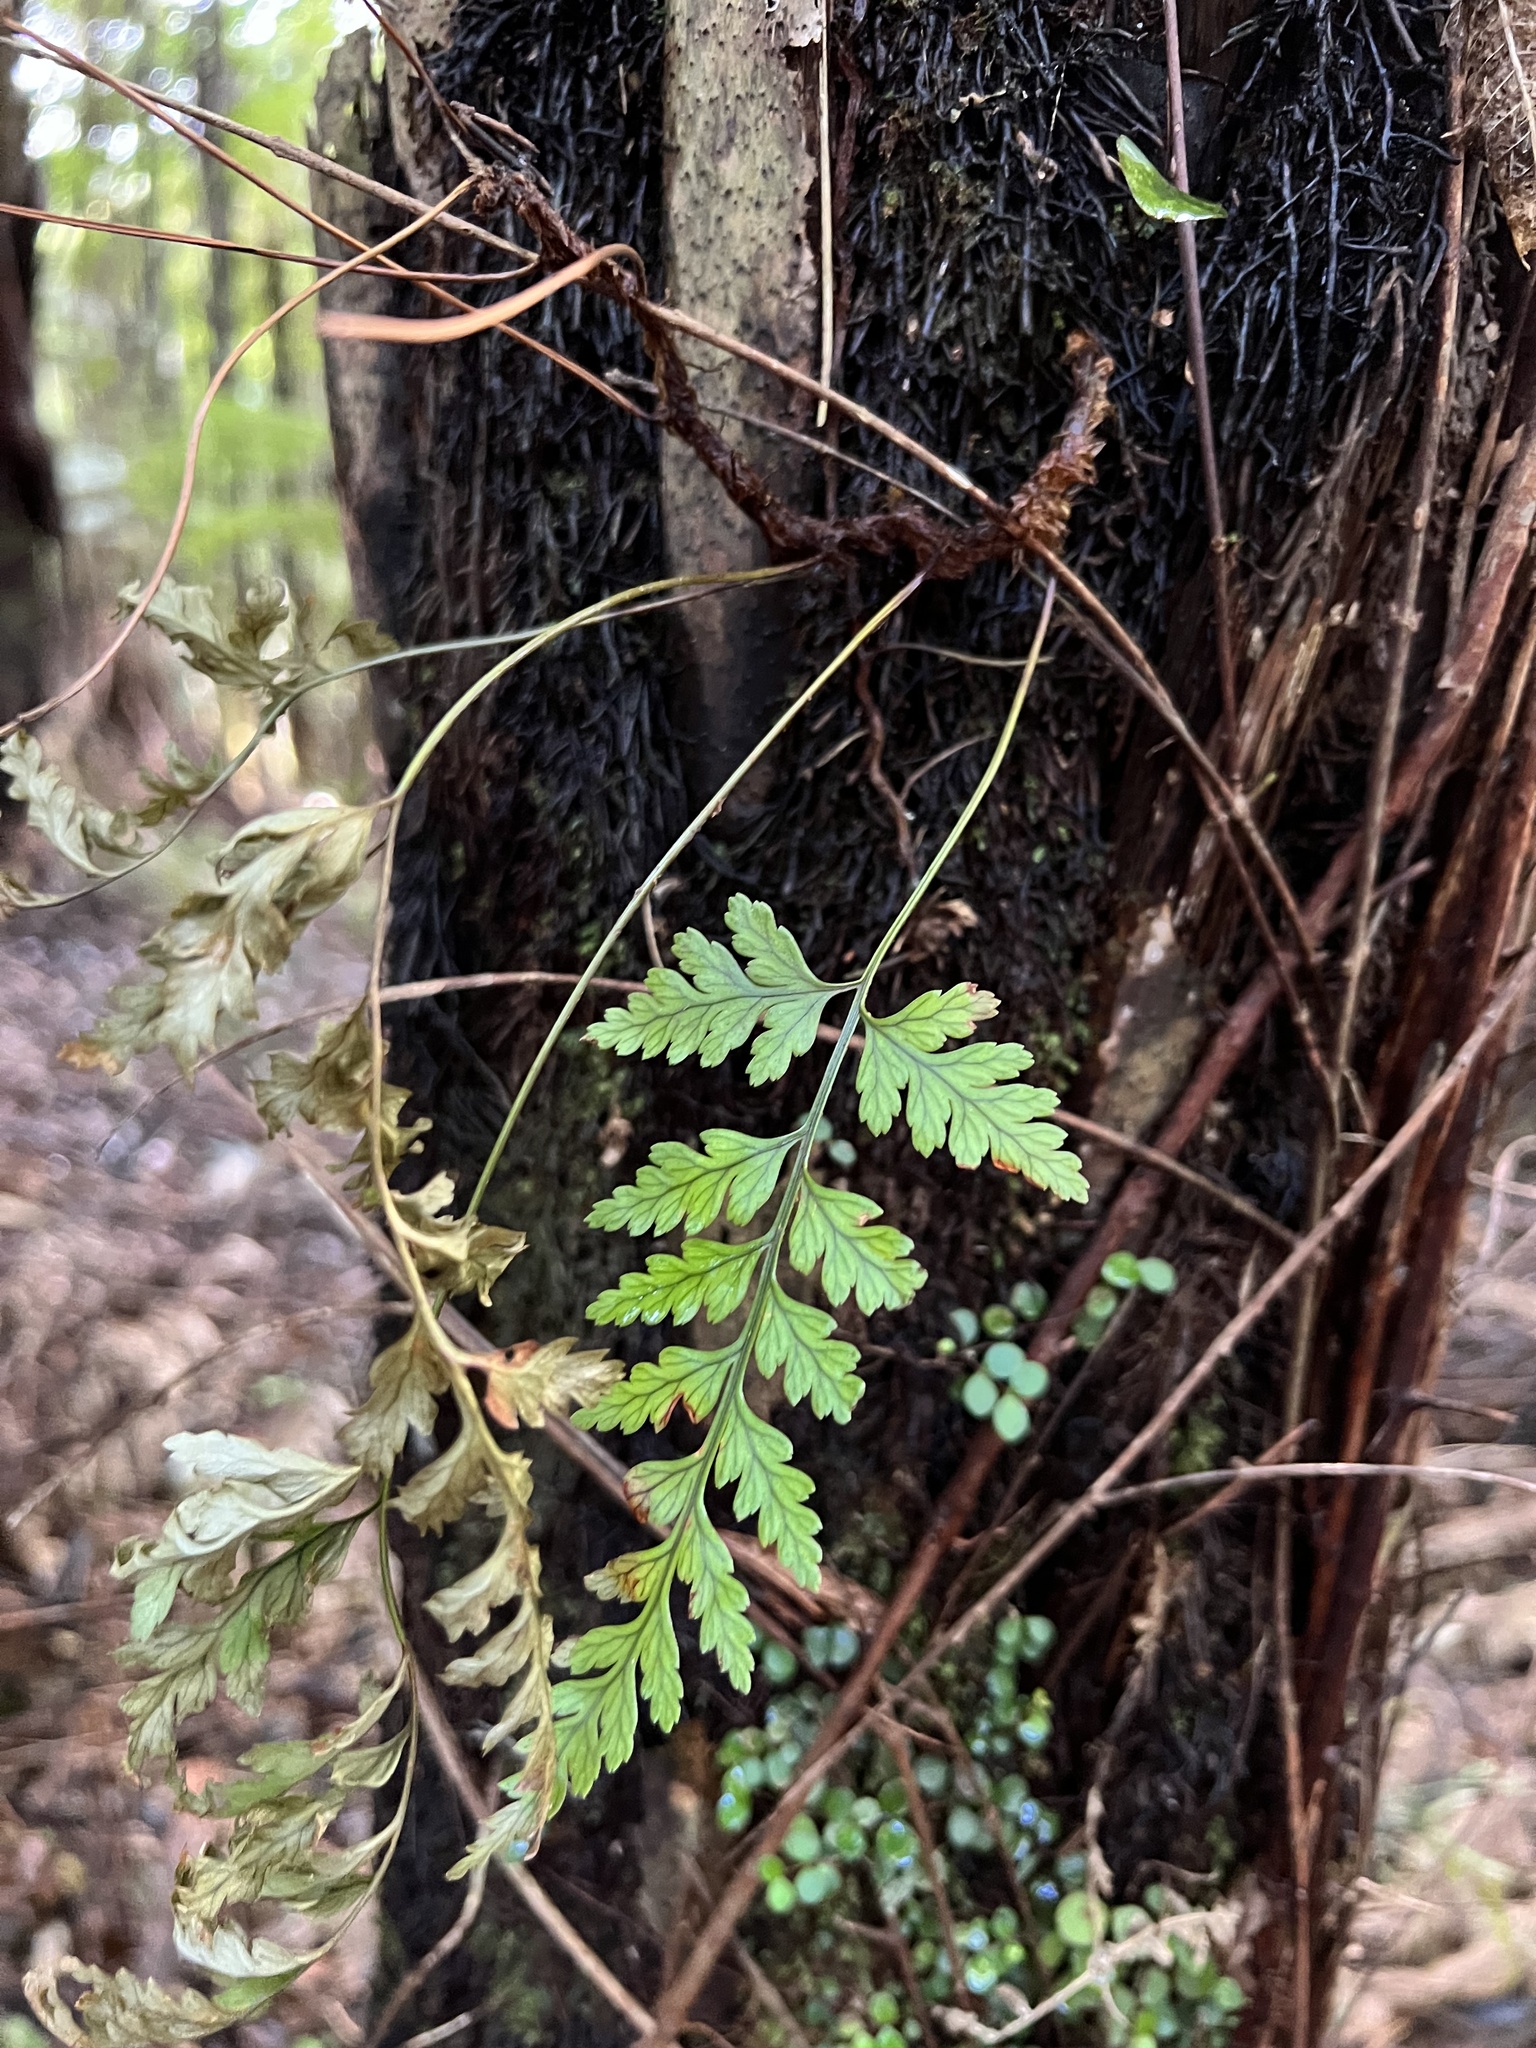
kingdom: Plantae
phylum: Tracheophyta
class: Polypodiopsida
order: Polypodiales
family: Dryopteridaceae
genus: Rumohra
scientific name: Rumohra adiantiformis
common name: Leather fern
